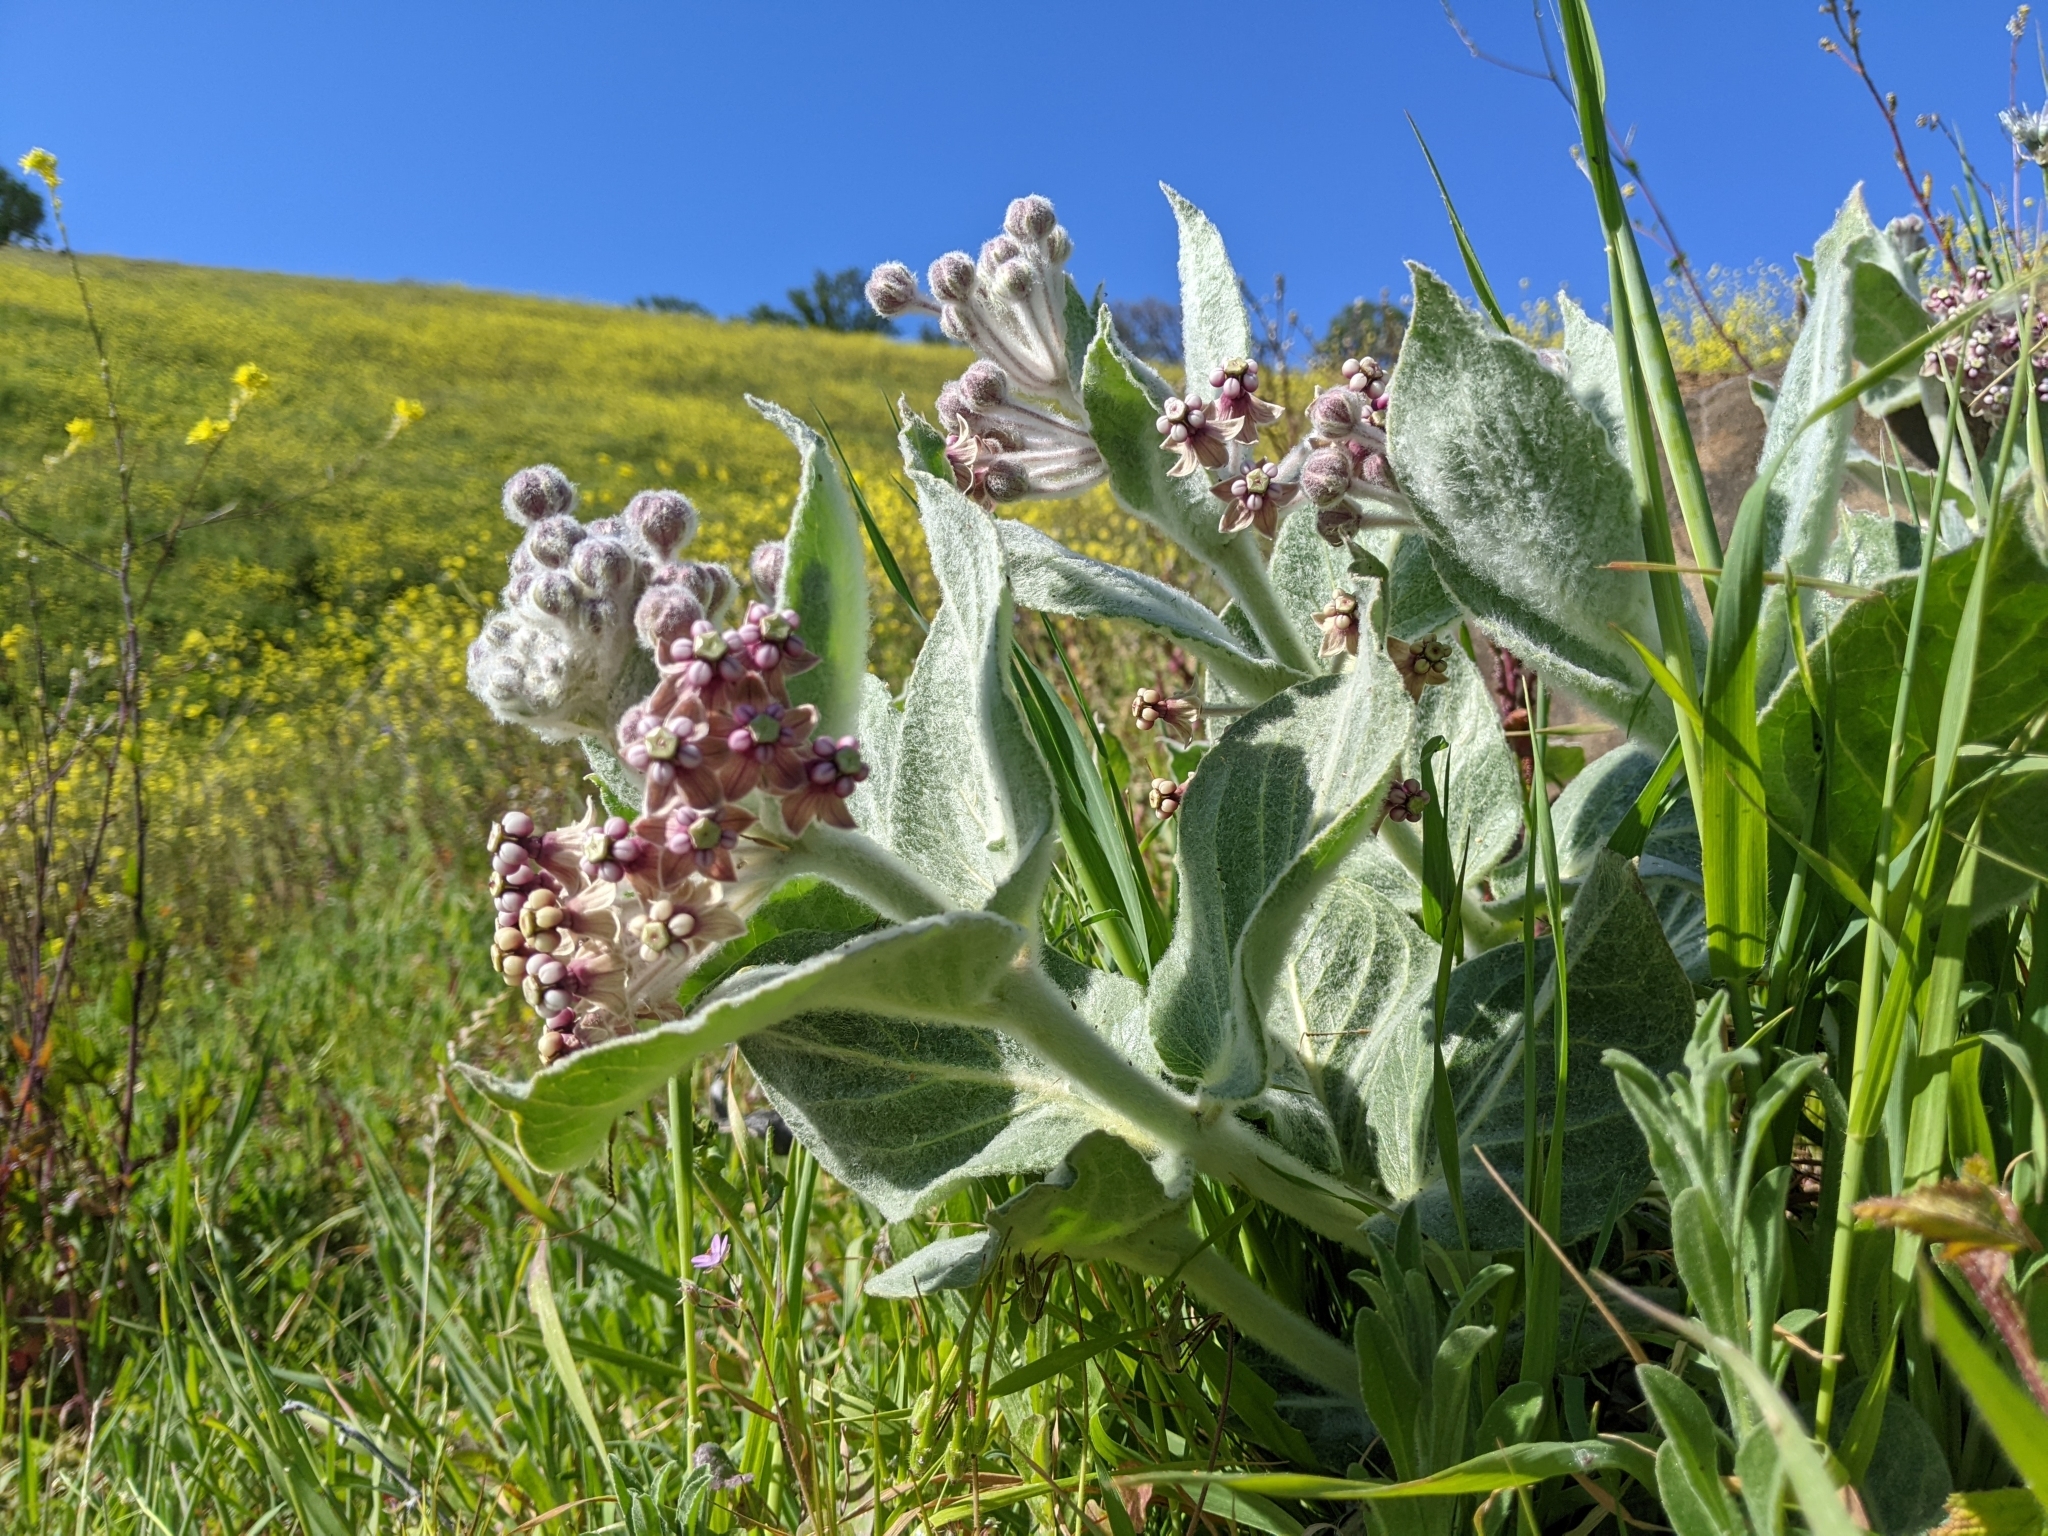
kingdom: Plantae
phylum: Tracheophyta
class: Magnoliopsida
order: Gentianales
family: Apocynaceae
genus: Asclepias
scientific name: Asclepias californica
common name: California milkweed
